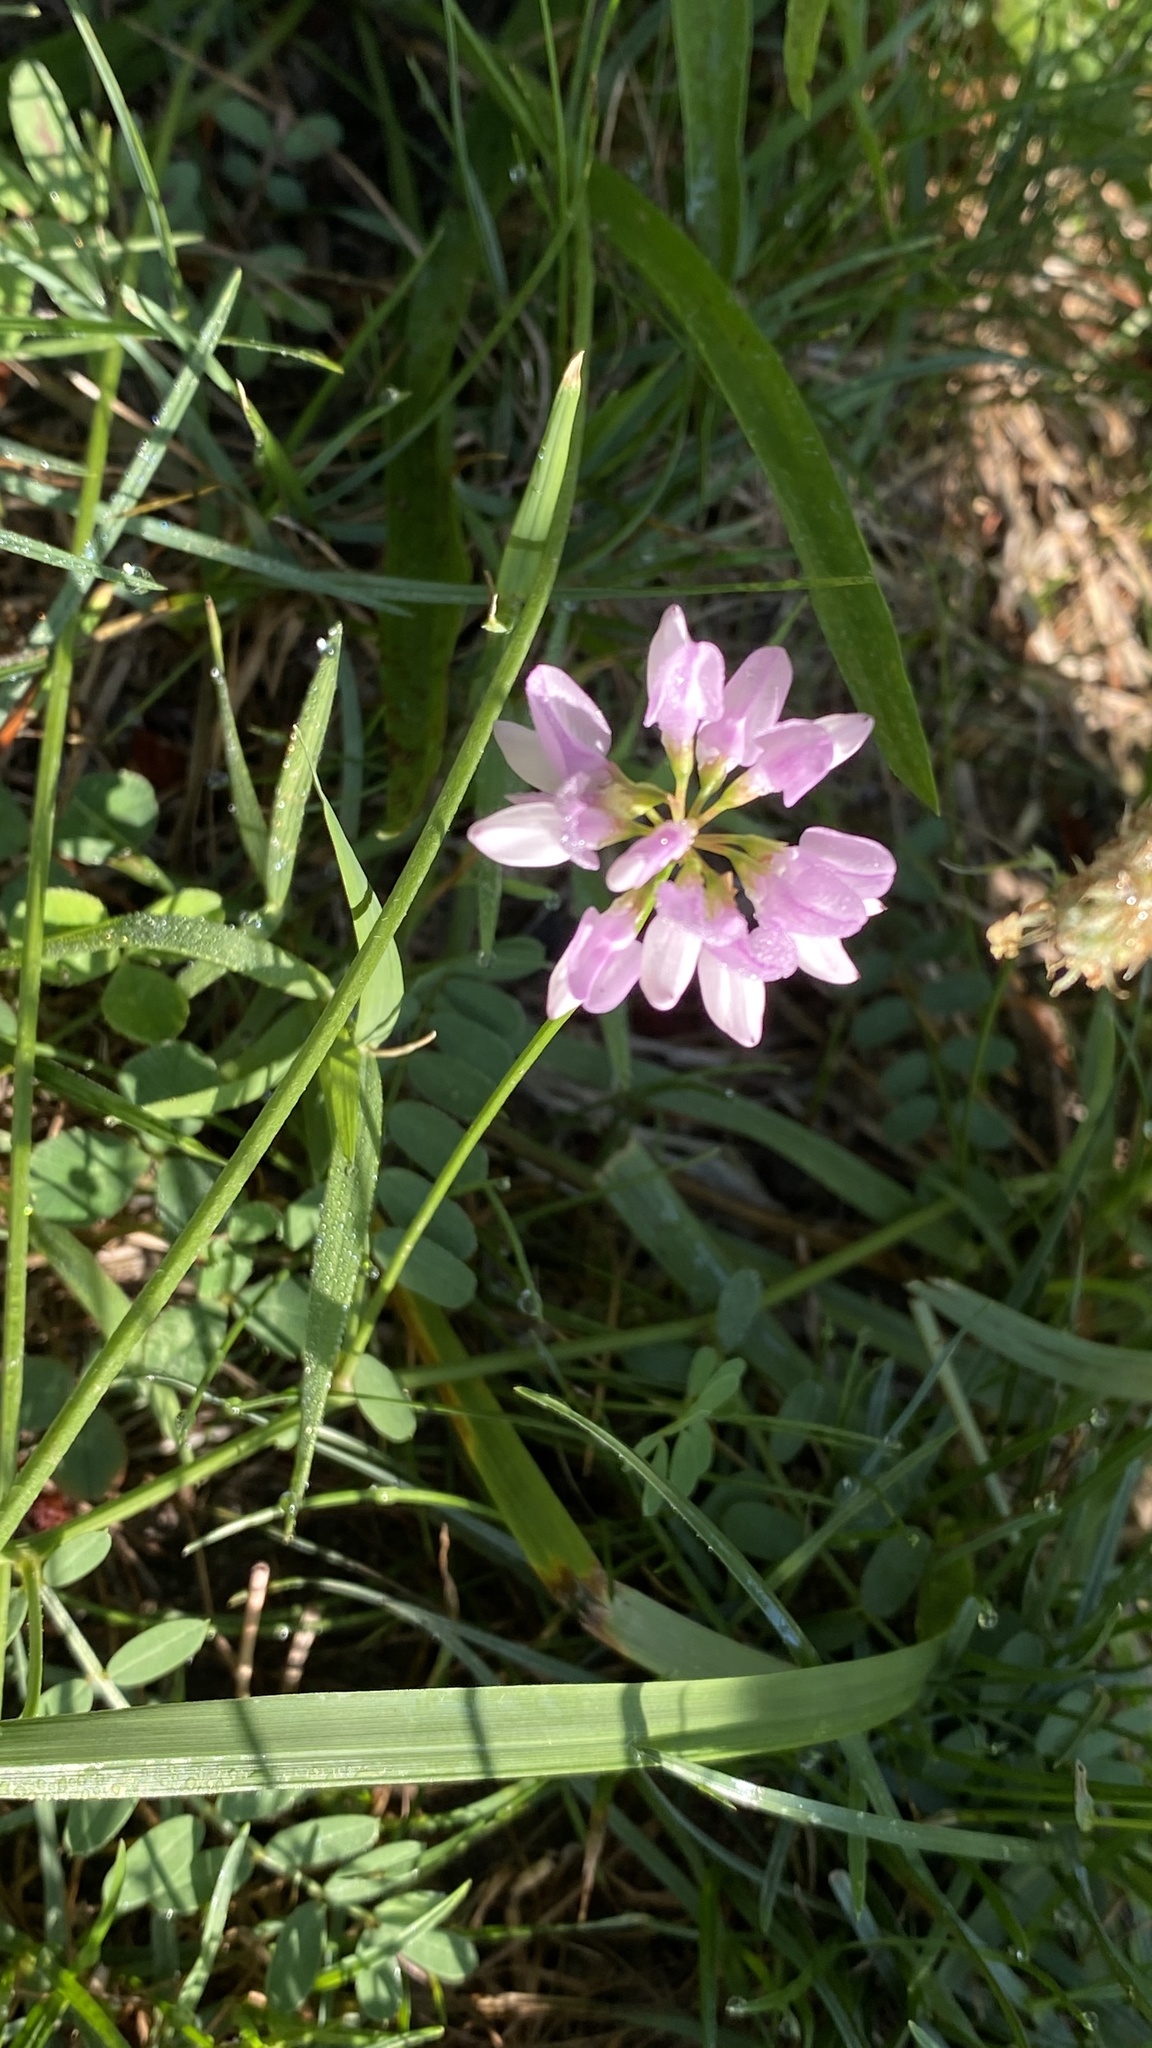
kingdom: Plantae
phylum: Tracheophyta
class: Magnoliopsida
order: Fabales
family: Fabaceae
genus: Coronilla
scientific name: Coronilla varia
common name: Crownvetch
